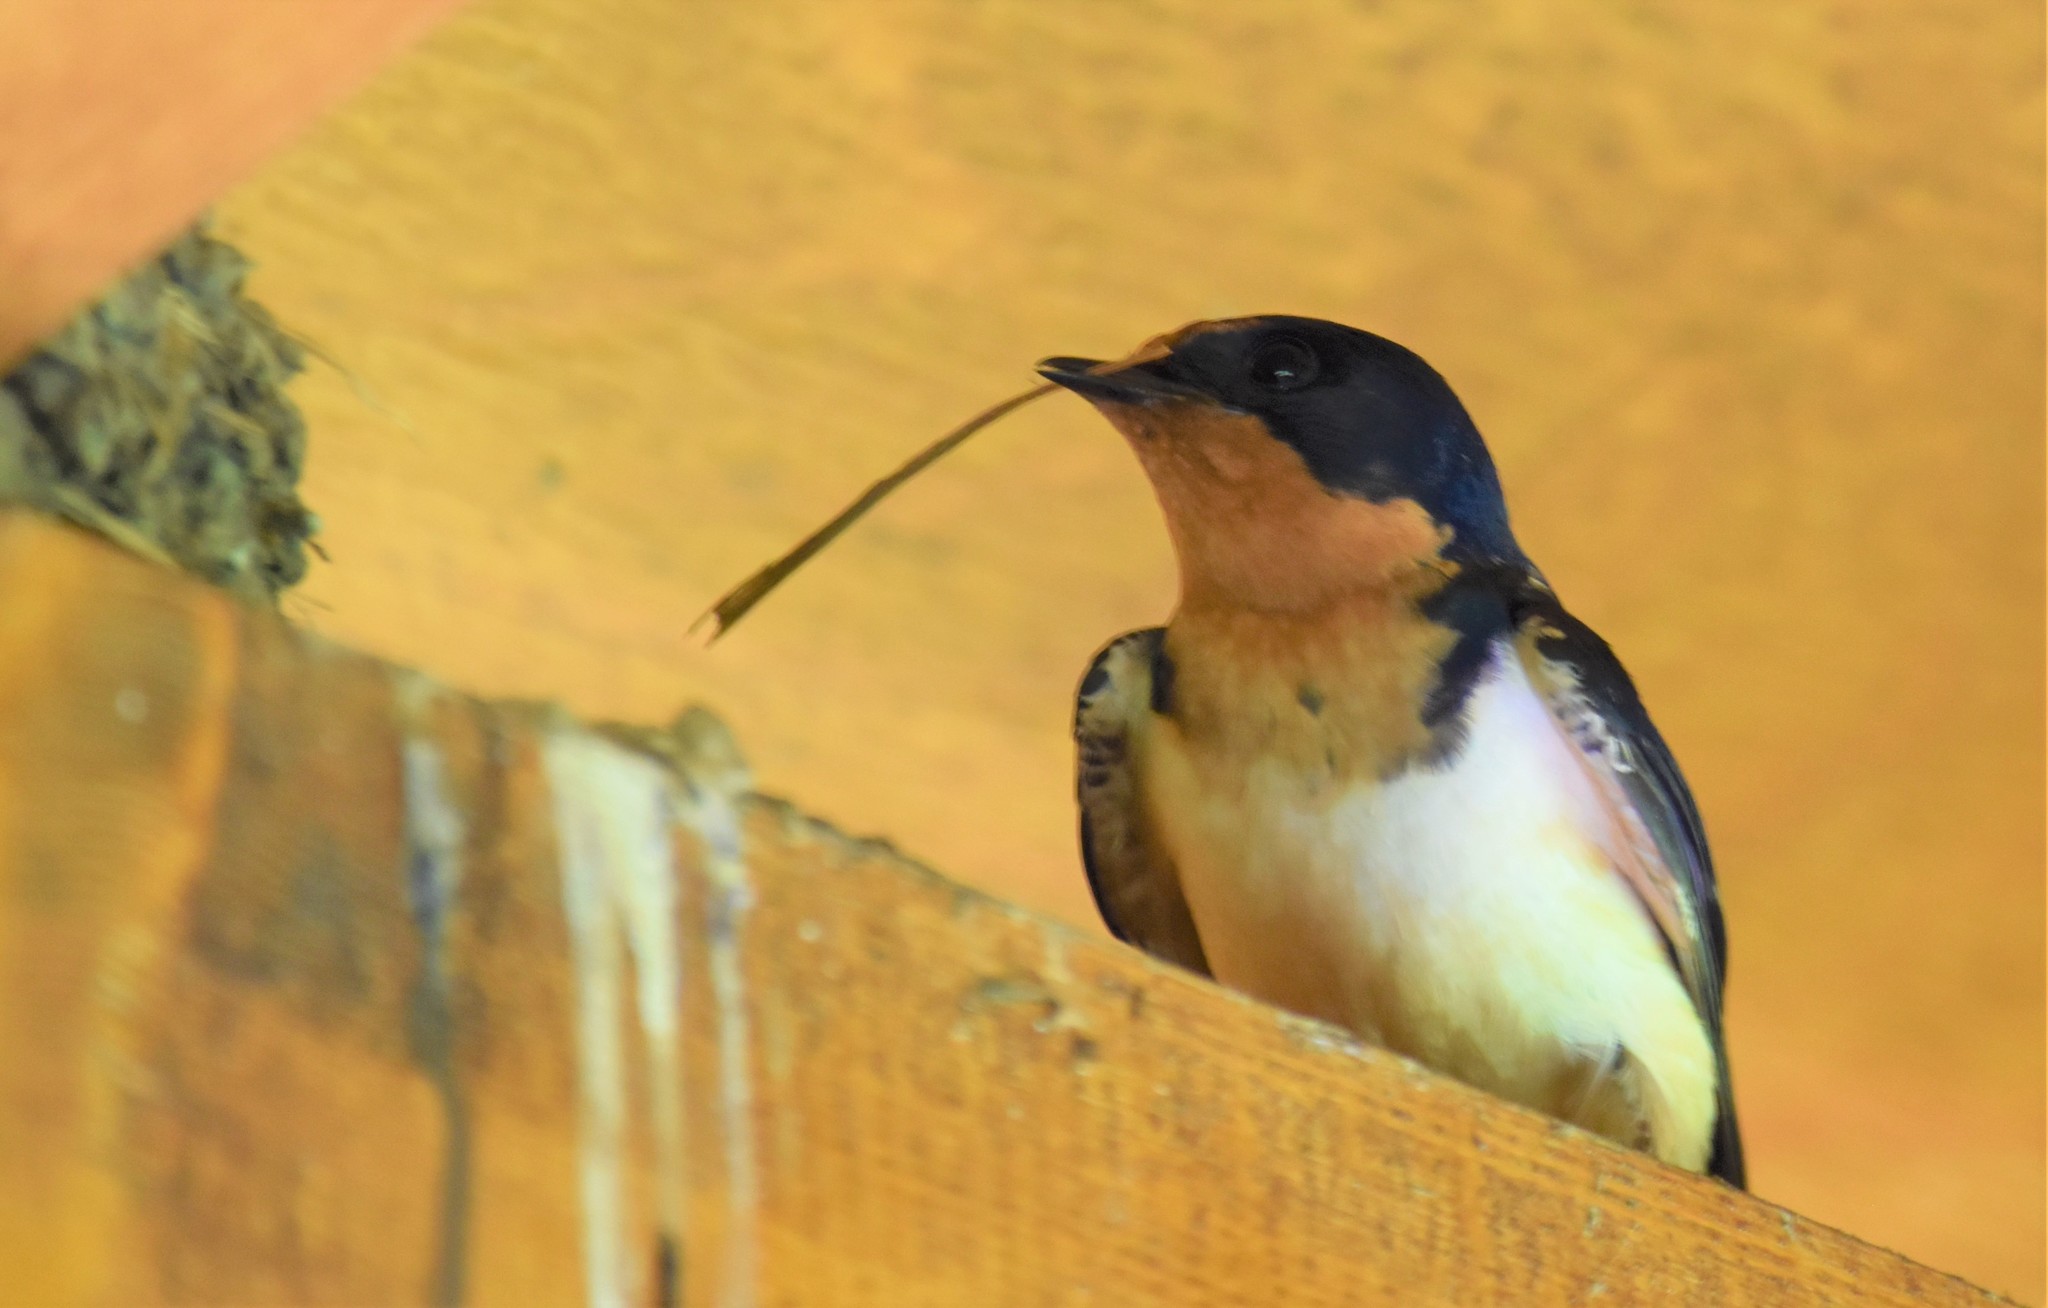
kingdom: Animalia
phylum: Chordata
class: Aves
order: Passeriformes
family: Hirundinidae
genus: Hirundo
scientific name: Hirundo rustica
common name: Barn swallow
